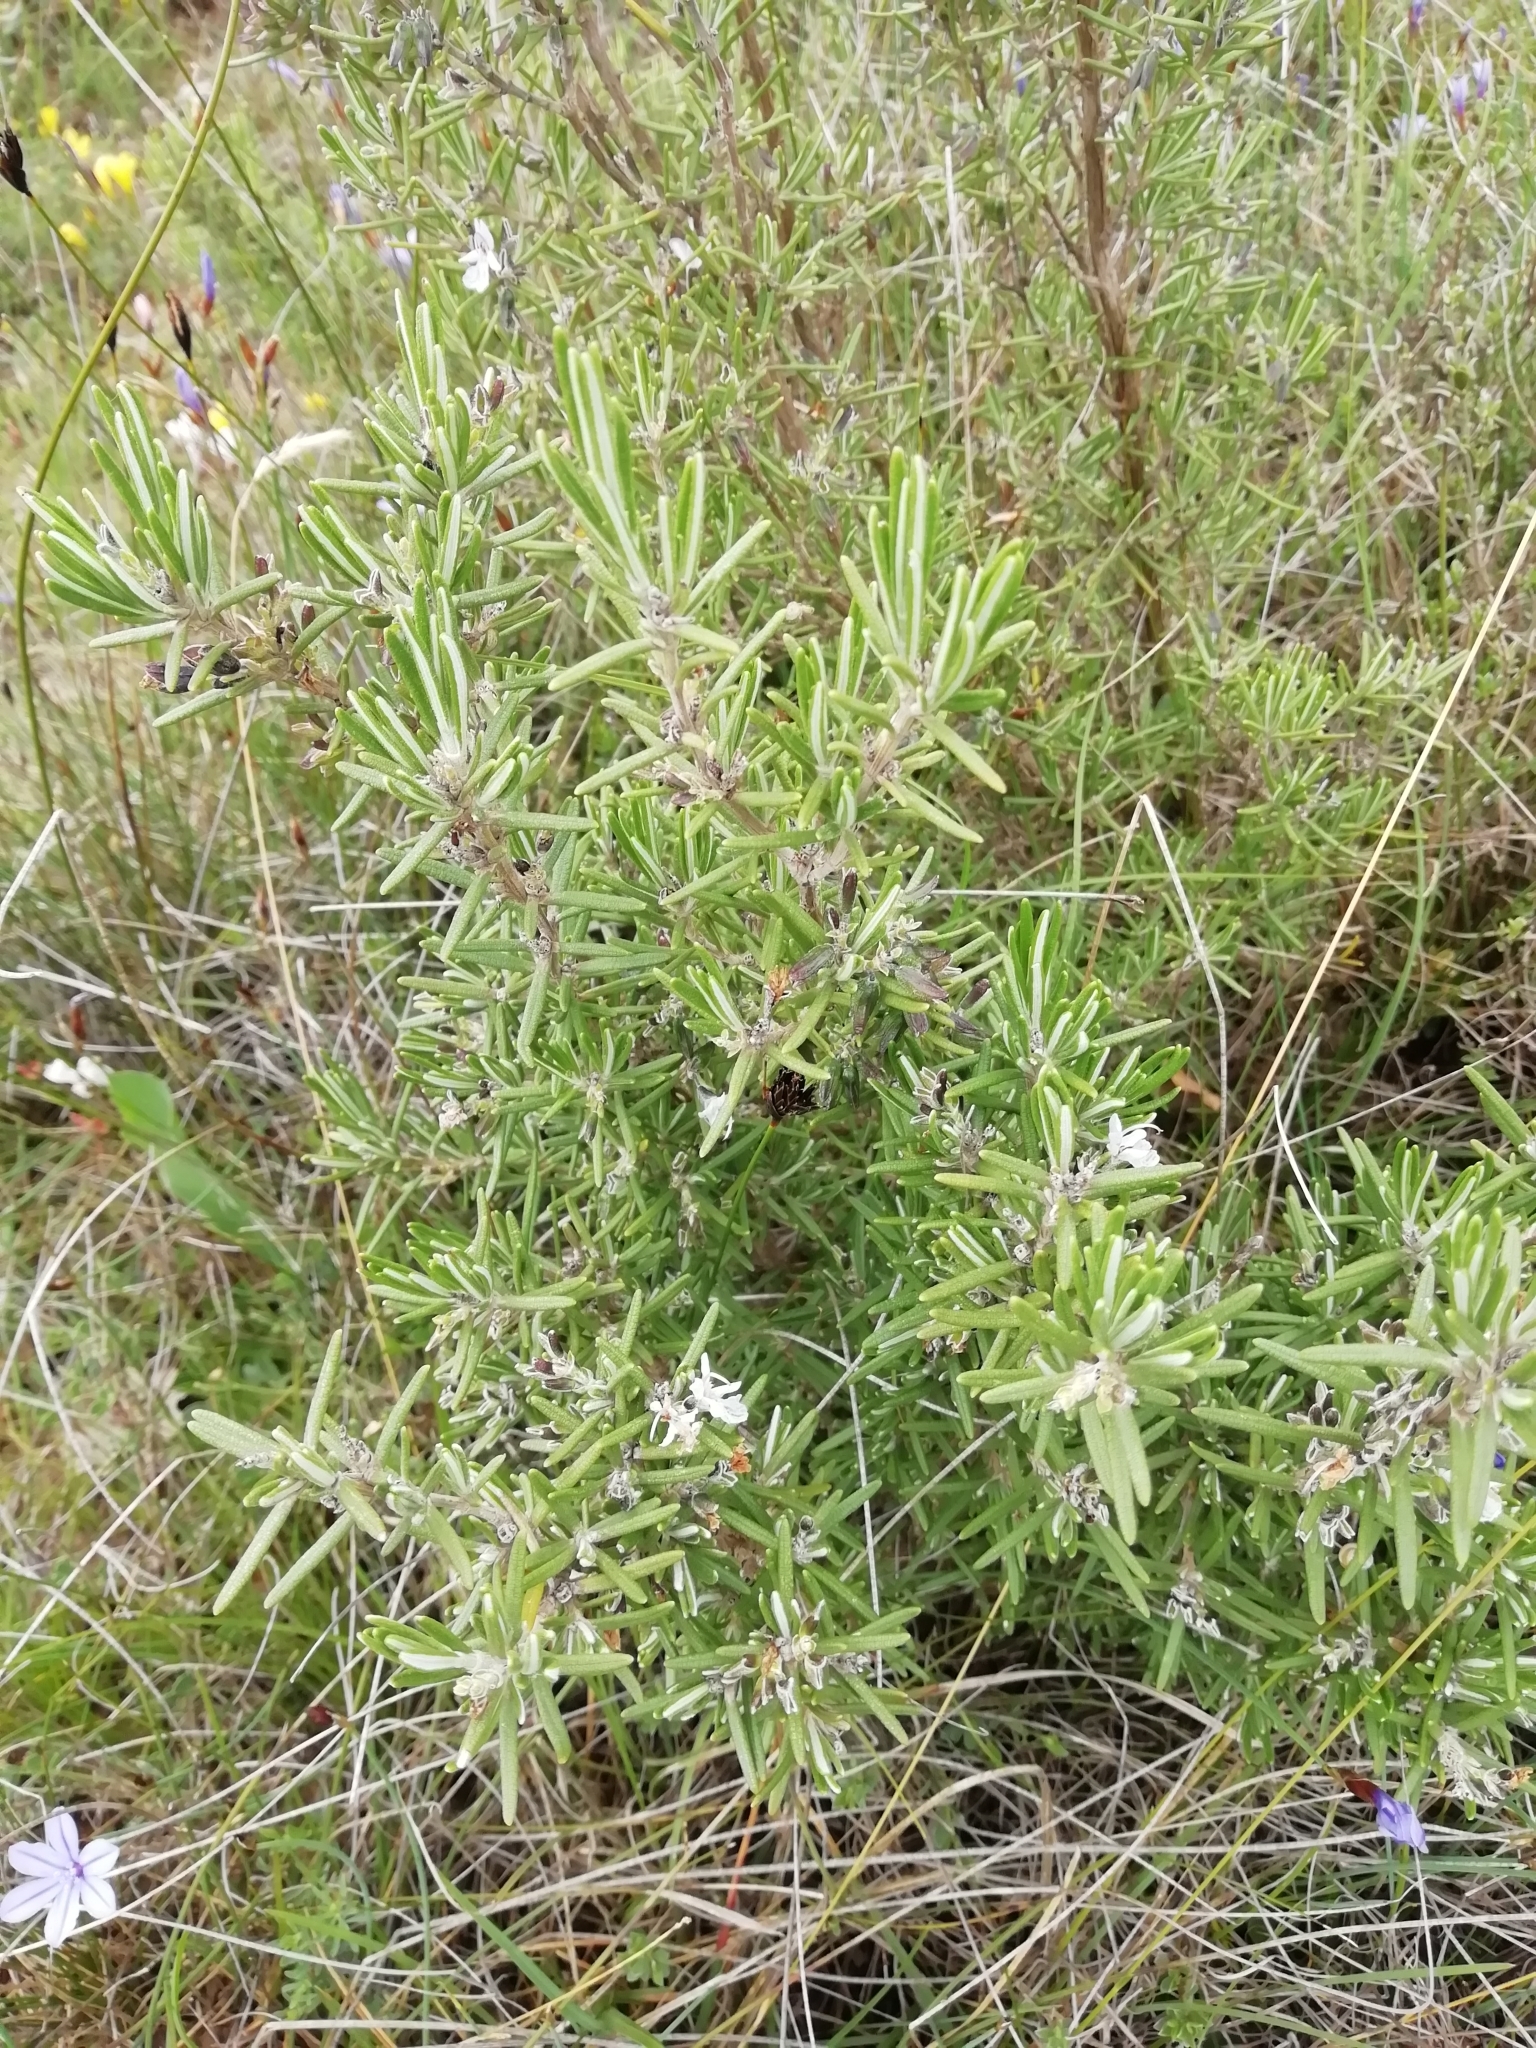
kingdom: Plantae
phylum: Tracheophyta
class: Magnoliopsida
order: Lamiales
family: Lamiaceae
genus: Salvia
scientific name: Salvia rosmarinus
